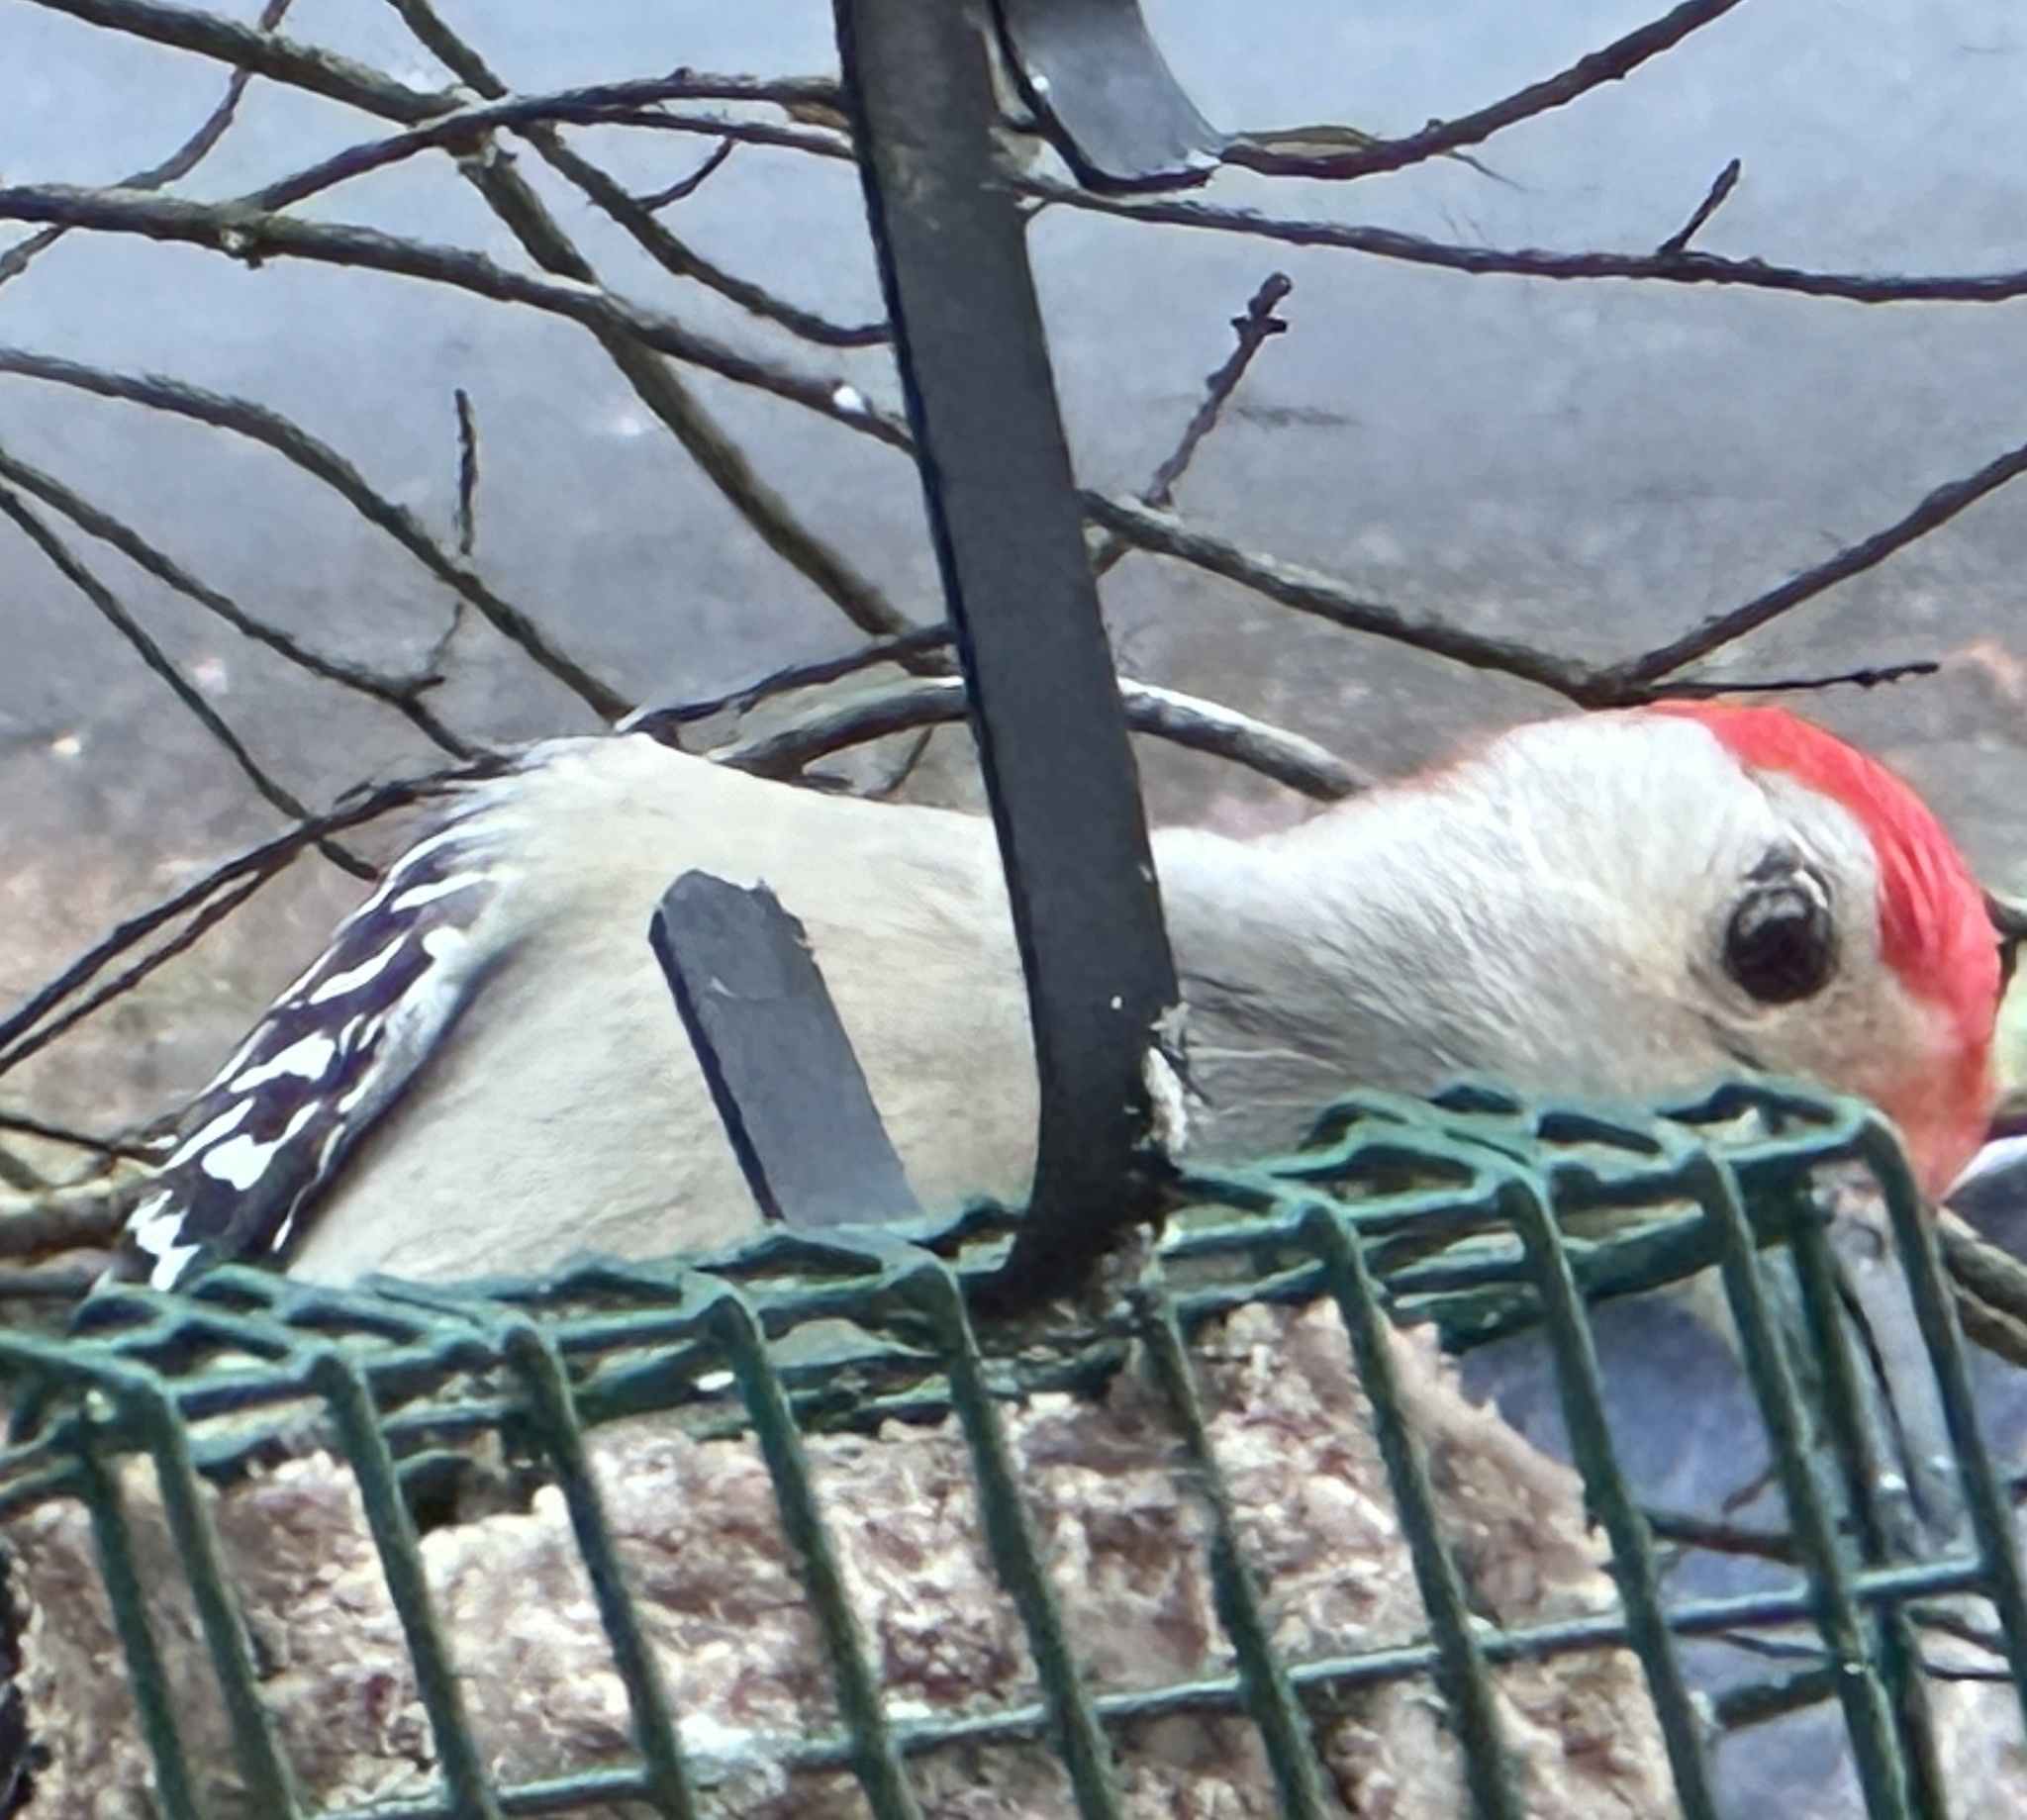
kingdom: Animalia
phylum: Chordata
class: Aves
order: Piciformes
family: Picidae
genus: Melanerpes
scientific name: Melanerpes carolinus
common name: Red-bellied woodpecker
